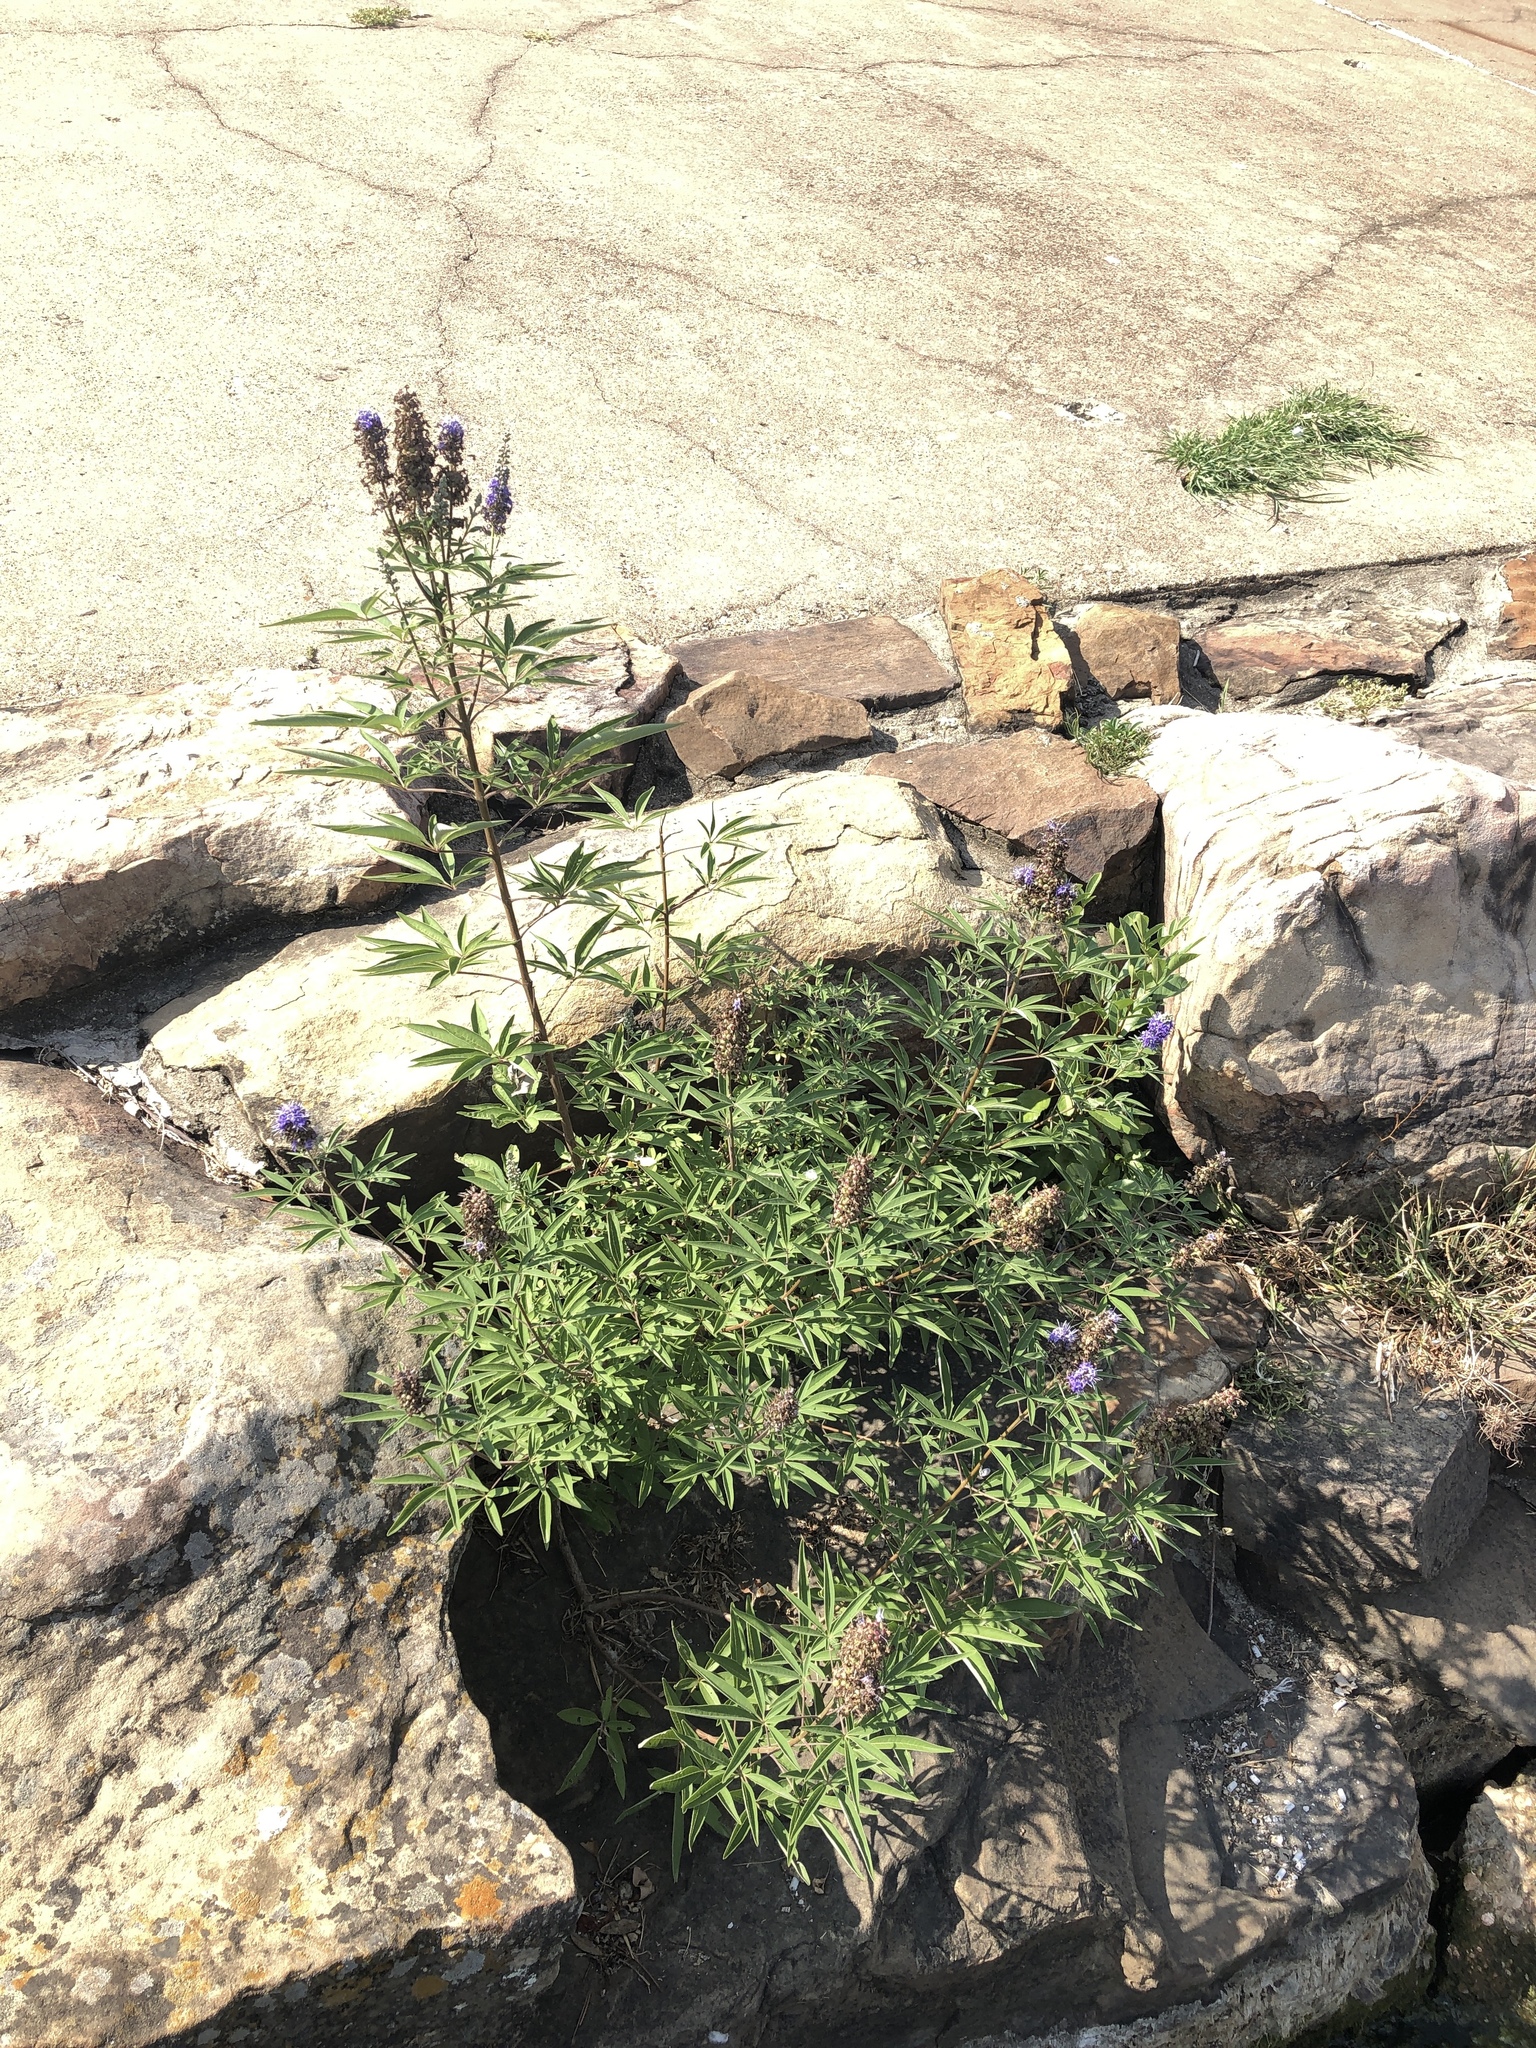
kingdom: Plantae
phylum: Tracheophyta
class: Magnoliopsida
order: Lamiales
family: Lamiaceae
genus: Vitex
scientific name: Vitex agnus-castus
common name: Chasteberry
